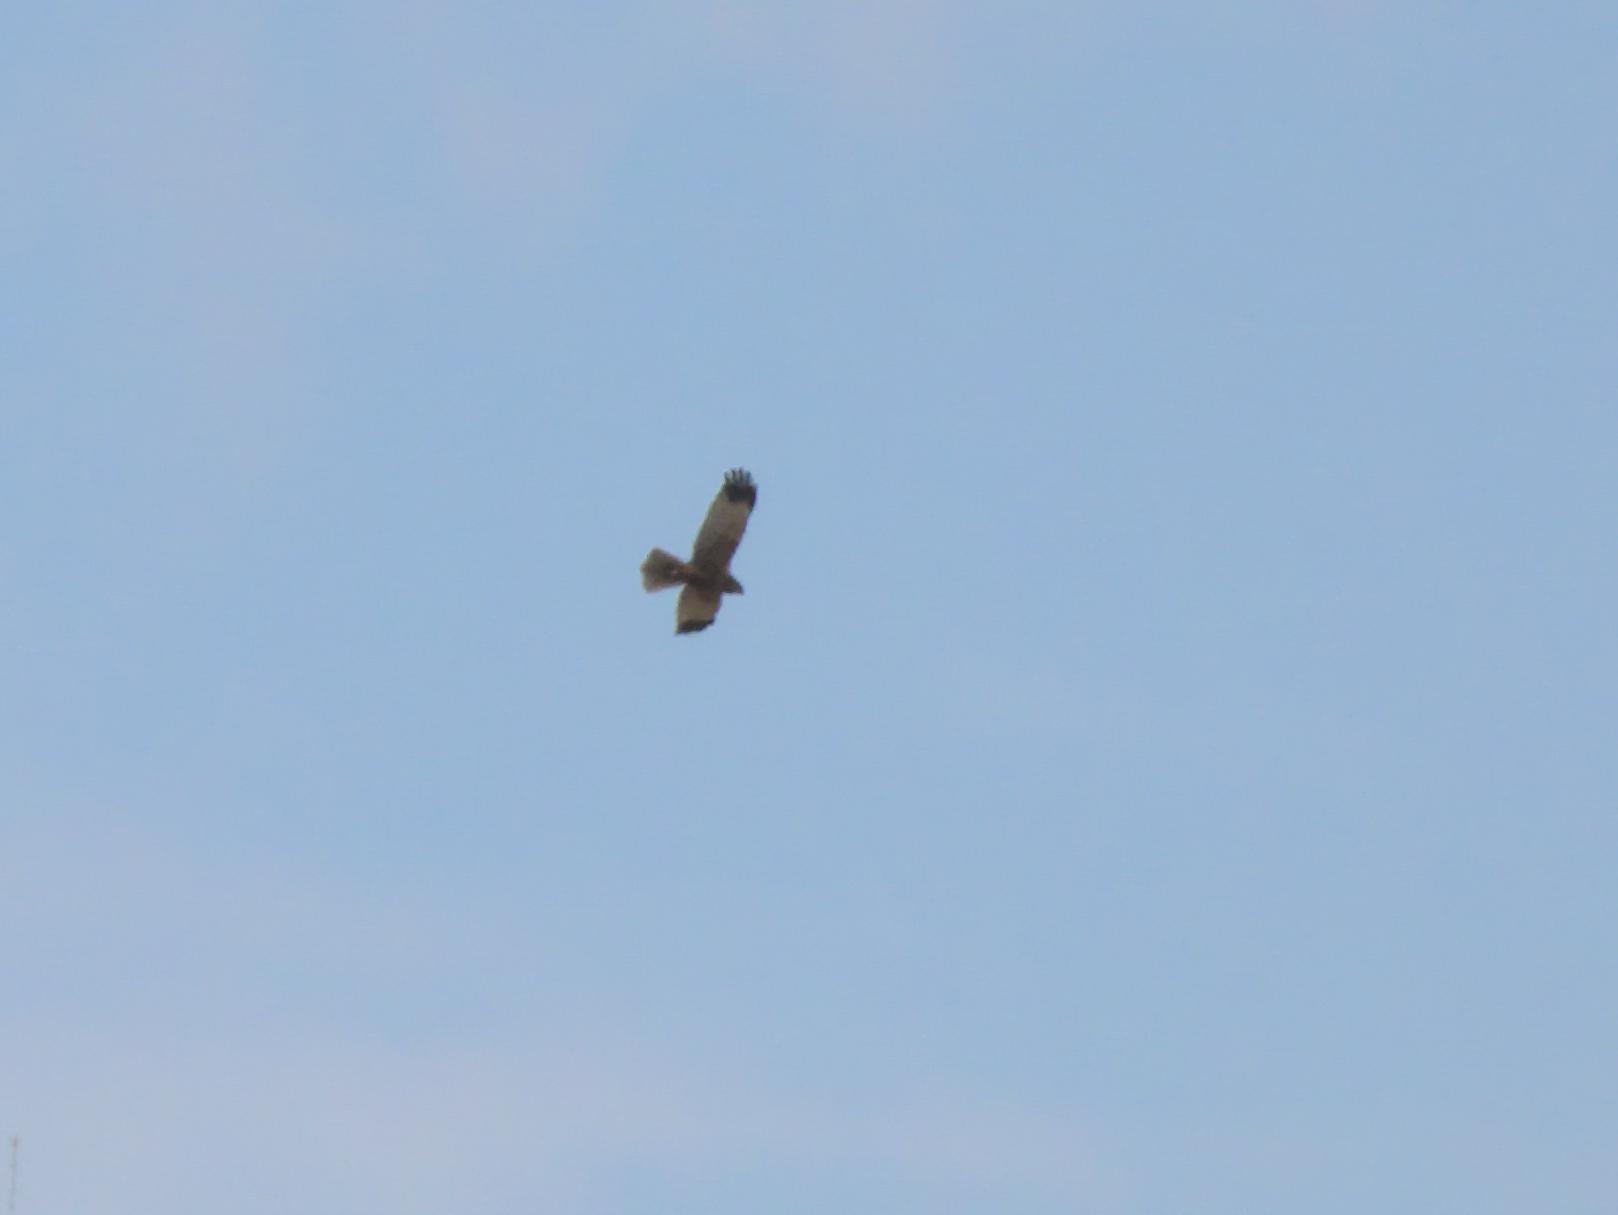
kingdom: Animalia
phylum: Chordata
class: Aves
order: Accipitriformes
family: Accipitridae
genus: Circus
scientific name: Circus aeruginosus
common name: Western marsh harrier
